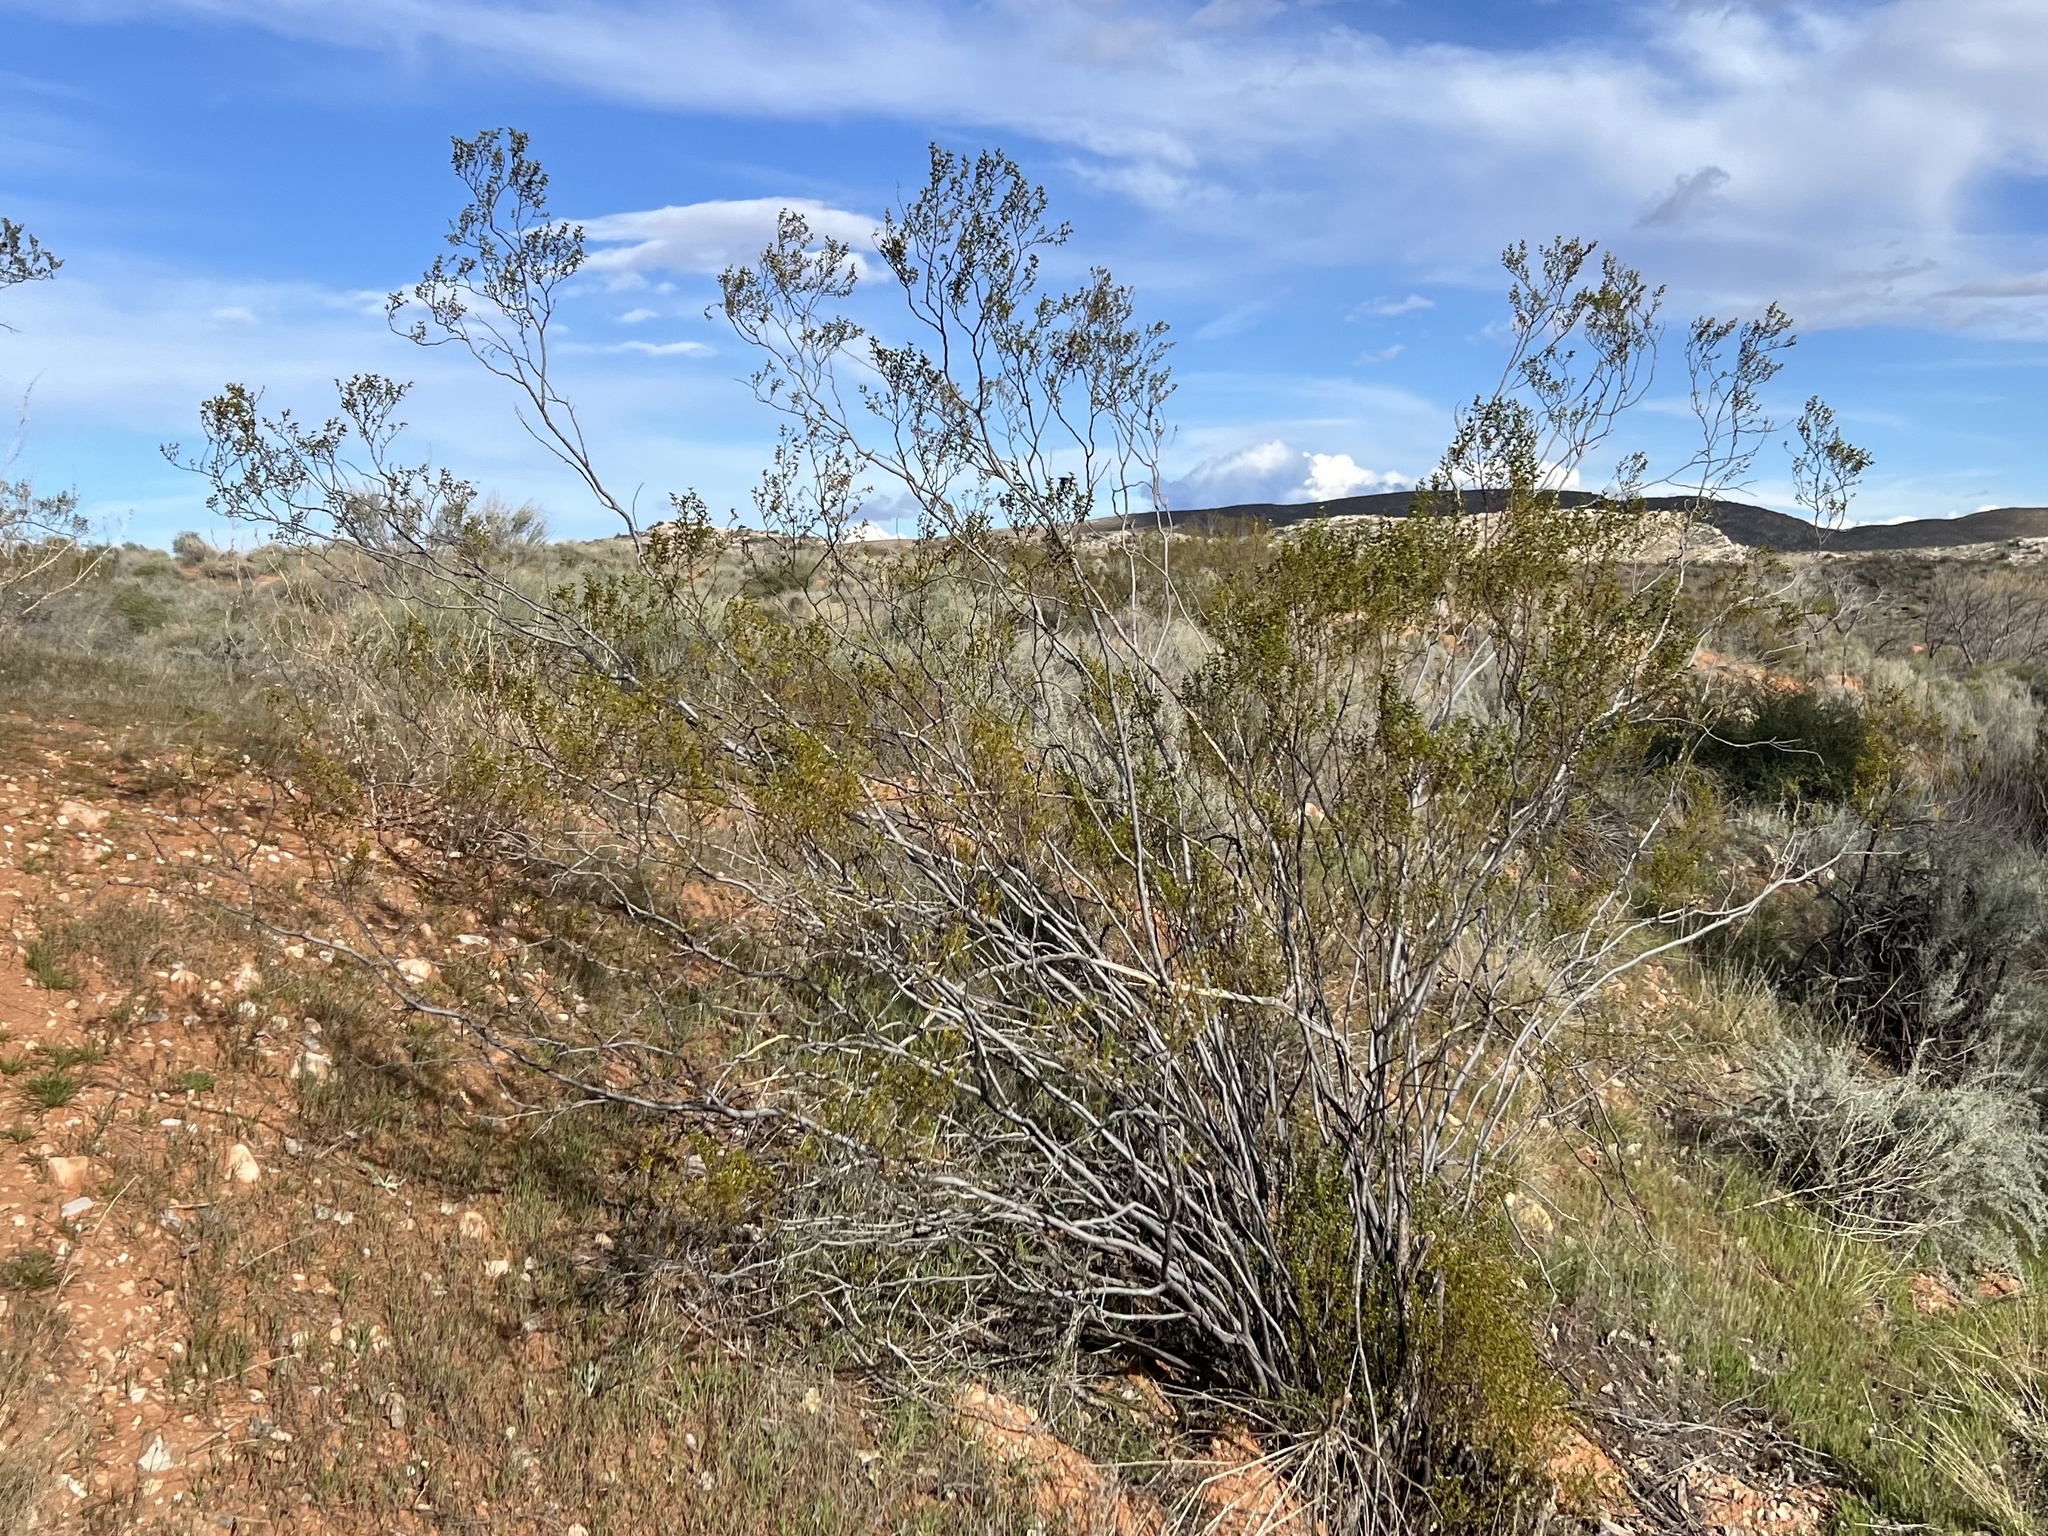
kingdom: Plantae
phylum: Tracheophyta
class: Magnoliopsida
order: Zygophyllales
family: Zygophyllaceae
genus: Larrea
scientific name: Larrea tridentata
